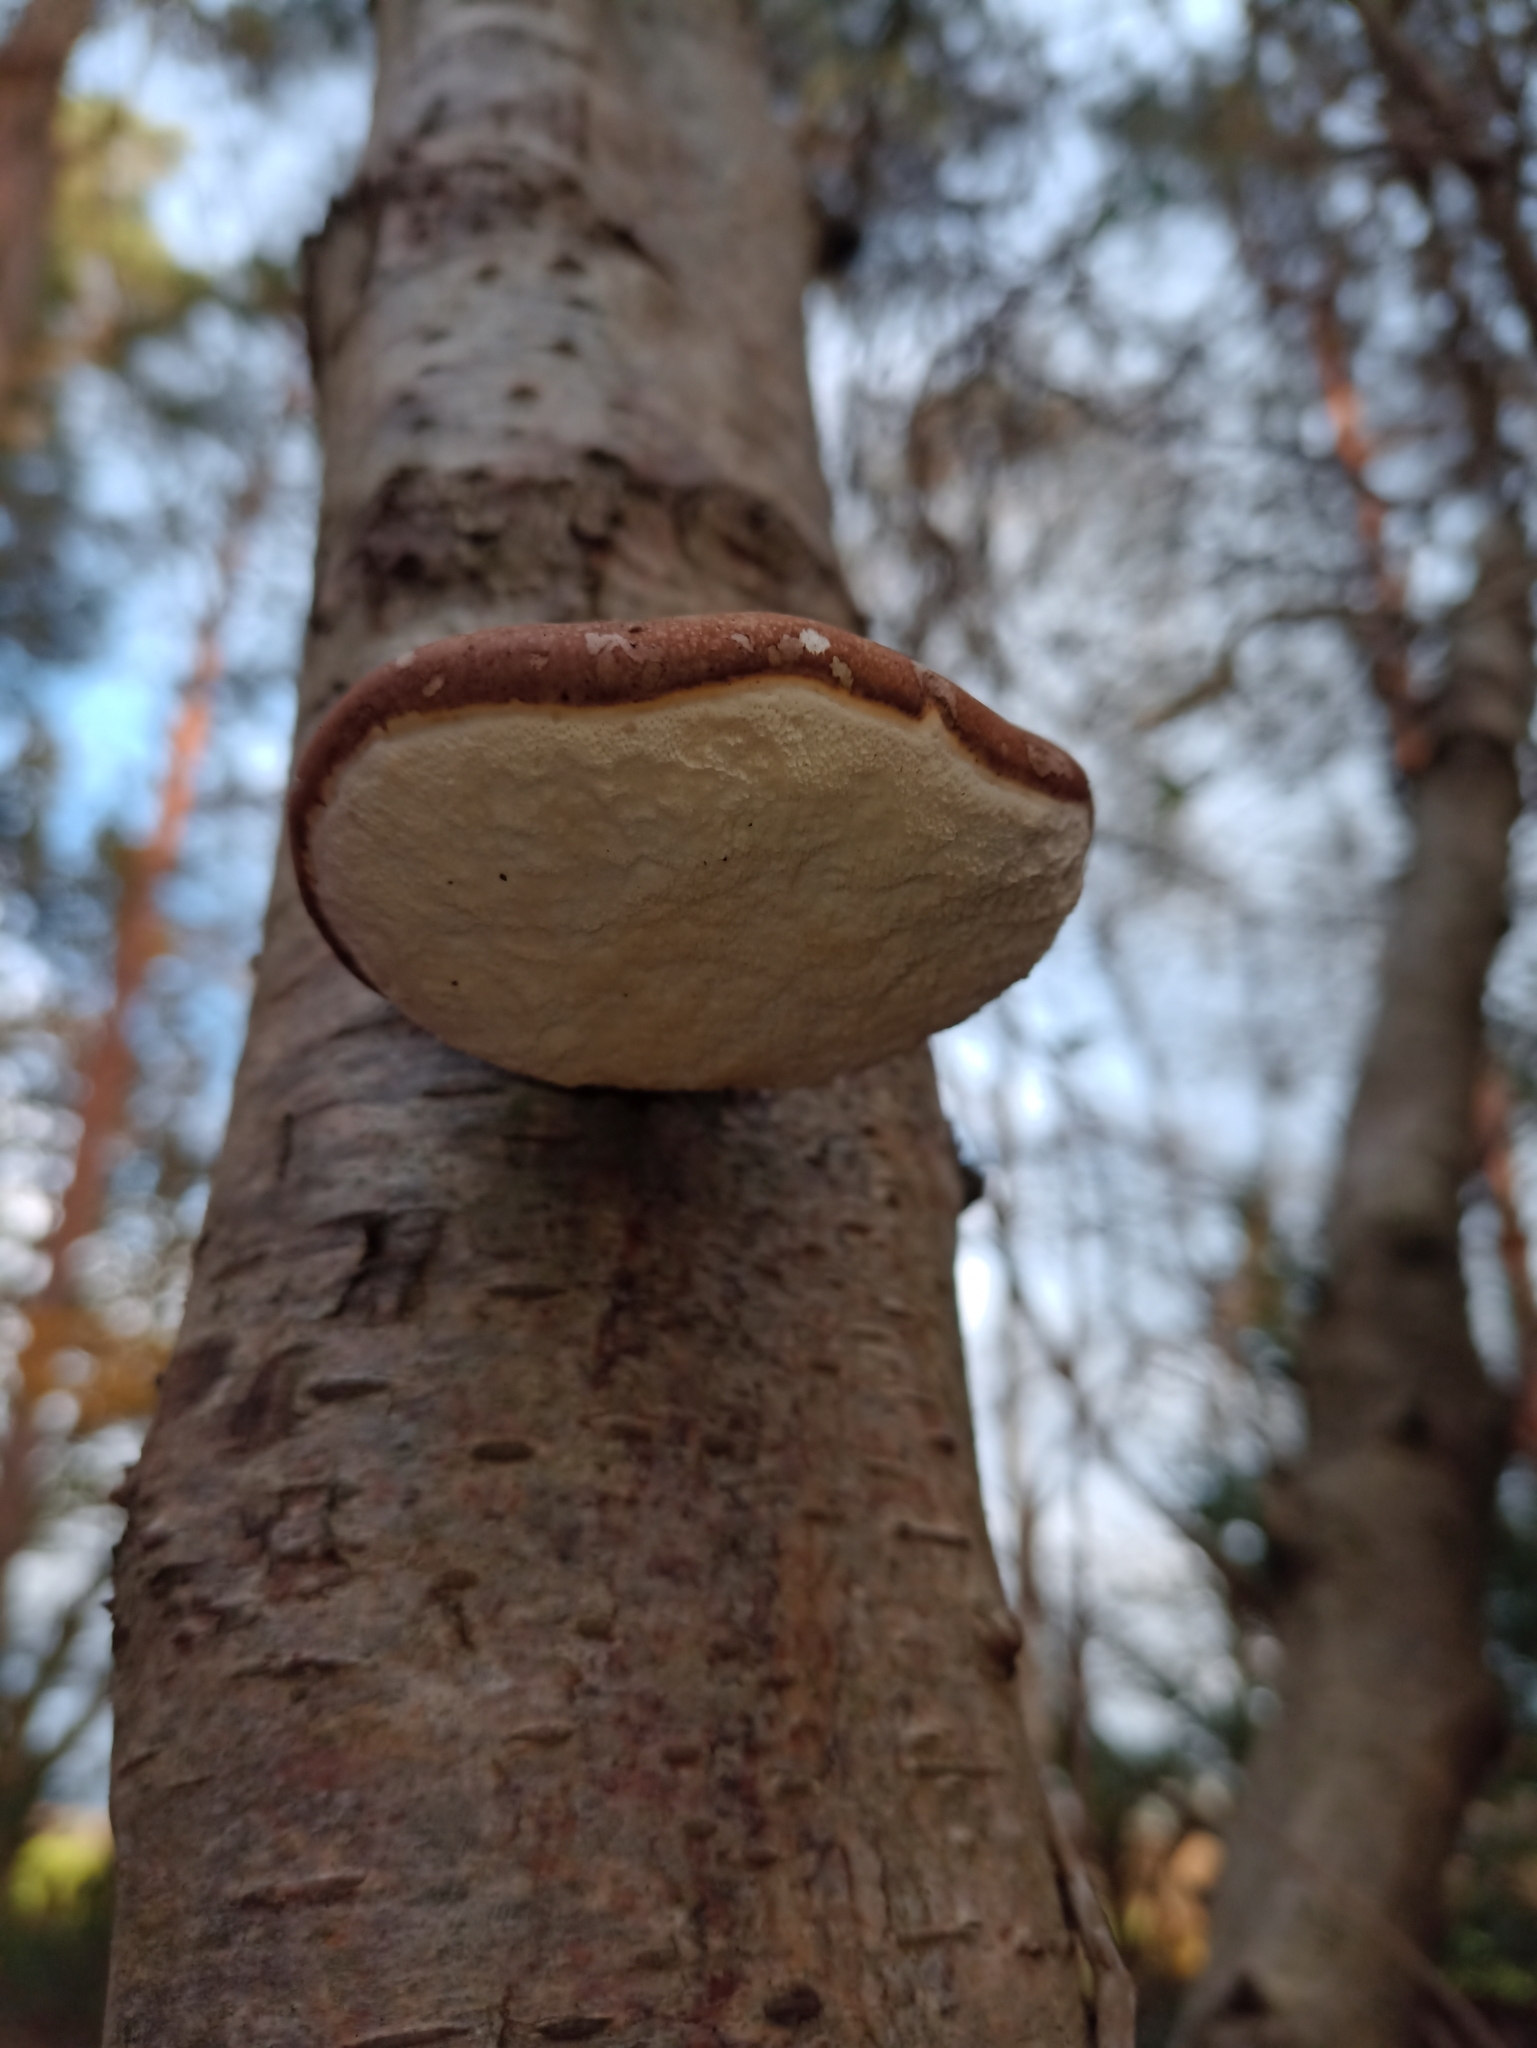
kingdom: Fungi
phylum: Basidiomycota
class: Agaricomycetes
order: Polyporales
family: Fomitopsidaceae
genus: Fomitopsis
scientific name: Fomitopsis betulina
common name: Birch polypore
